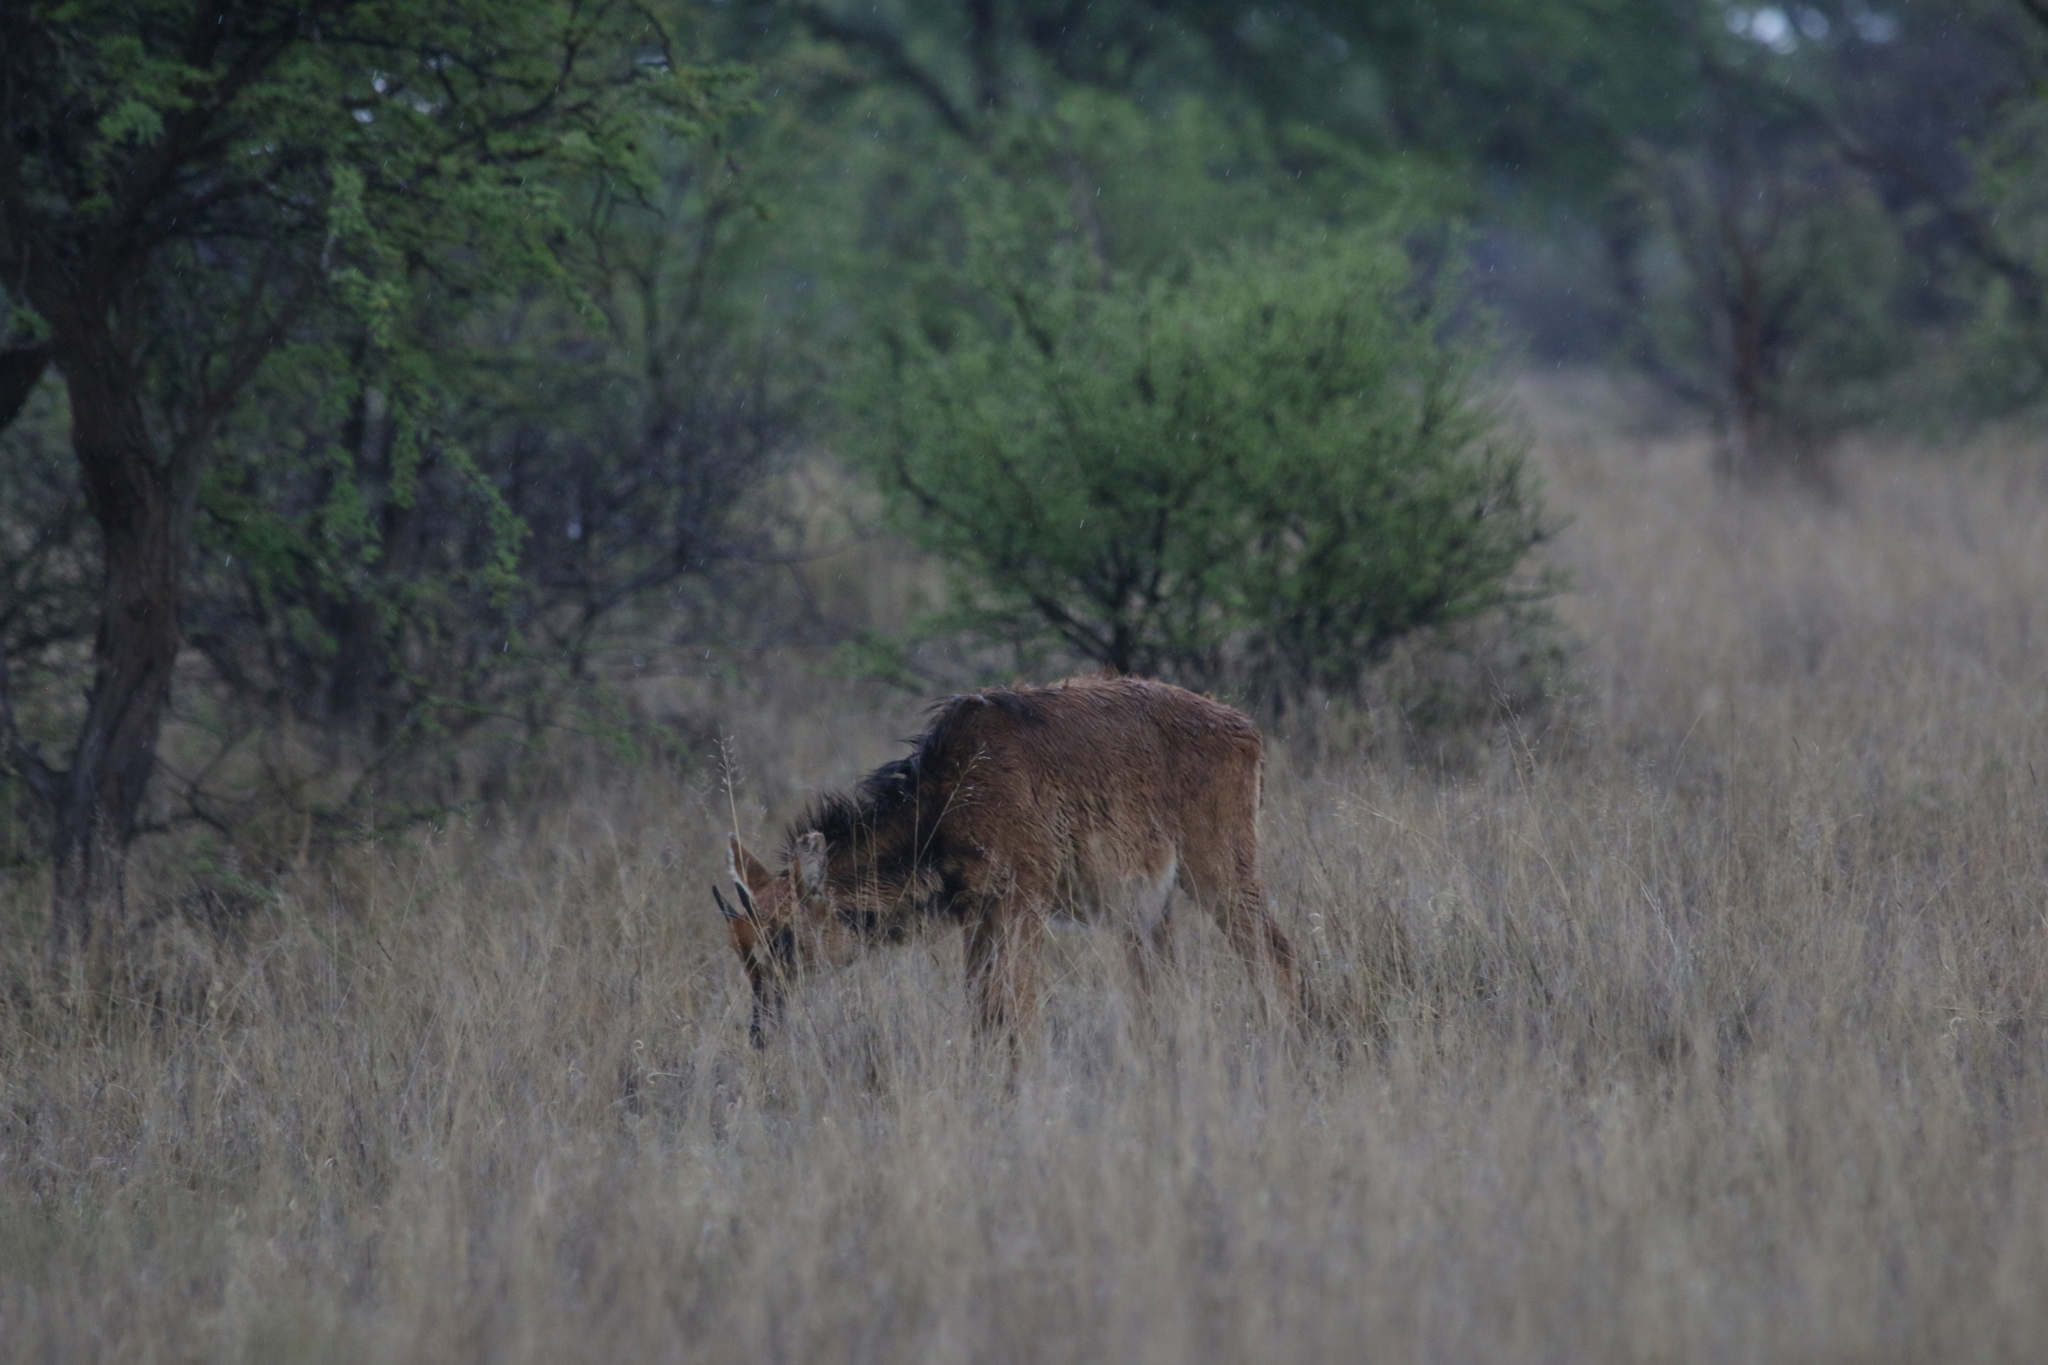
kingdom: Animalia
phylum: Chordata
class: Mammalia
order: Artiodactyla
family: Bovidae
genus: Hippotragus
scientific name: Hippotragus niger
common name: Sable antelope
